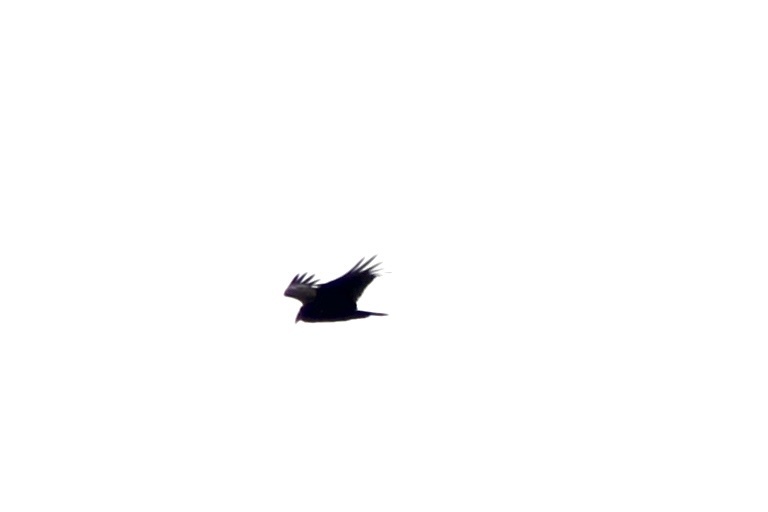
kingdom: Animalia
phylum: Chordata
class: Aves
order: Accipitriformes
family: Cathartidae
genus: Cathartes
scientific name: Cathartes aura
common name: Turkey vulture
